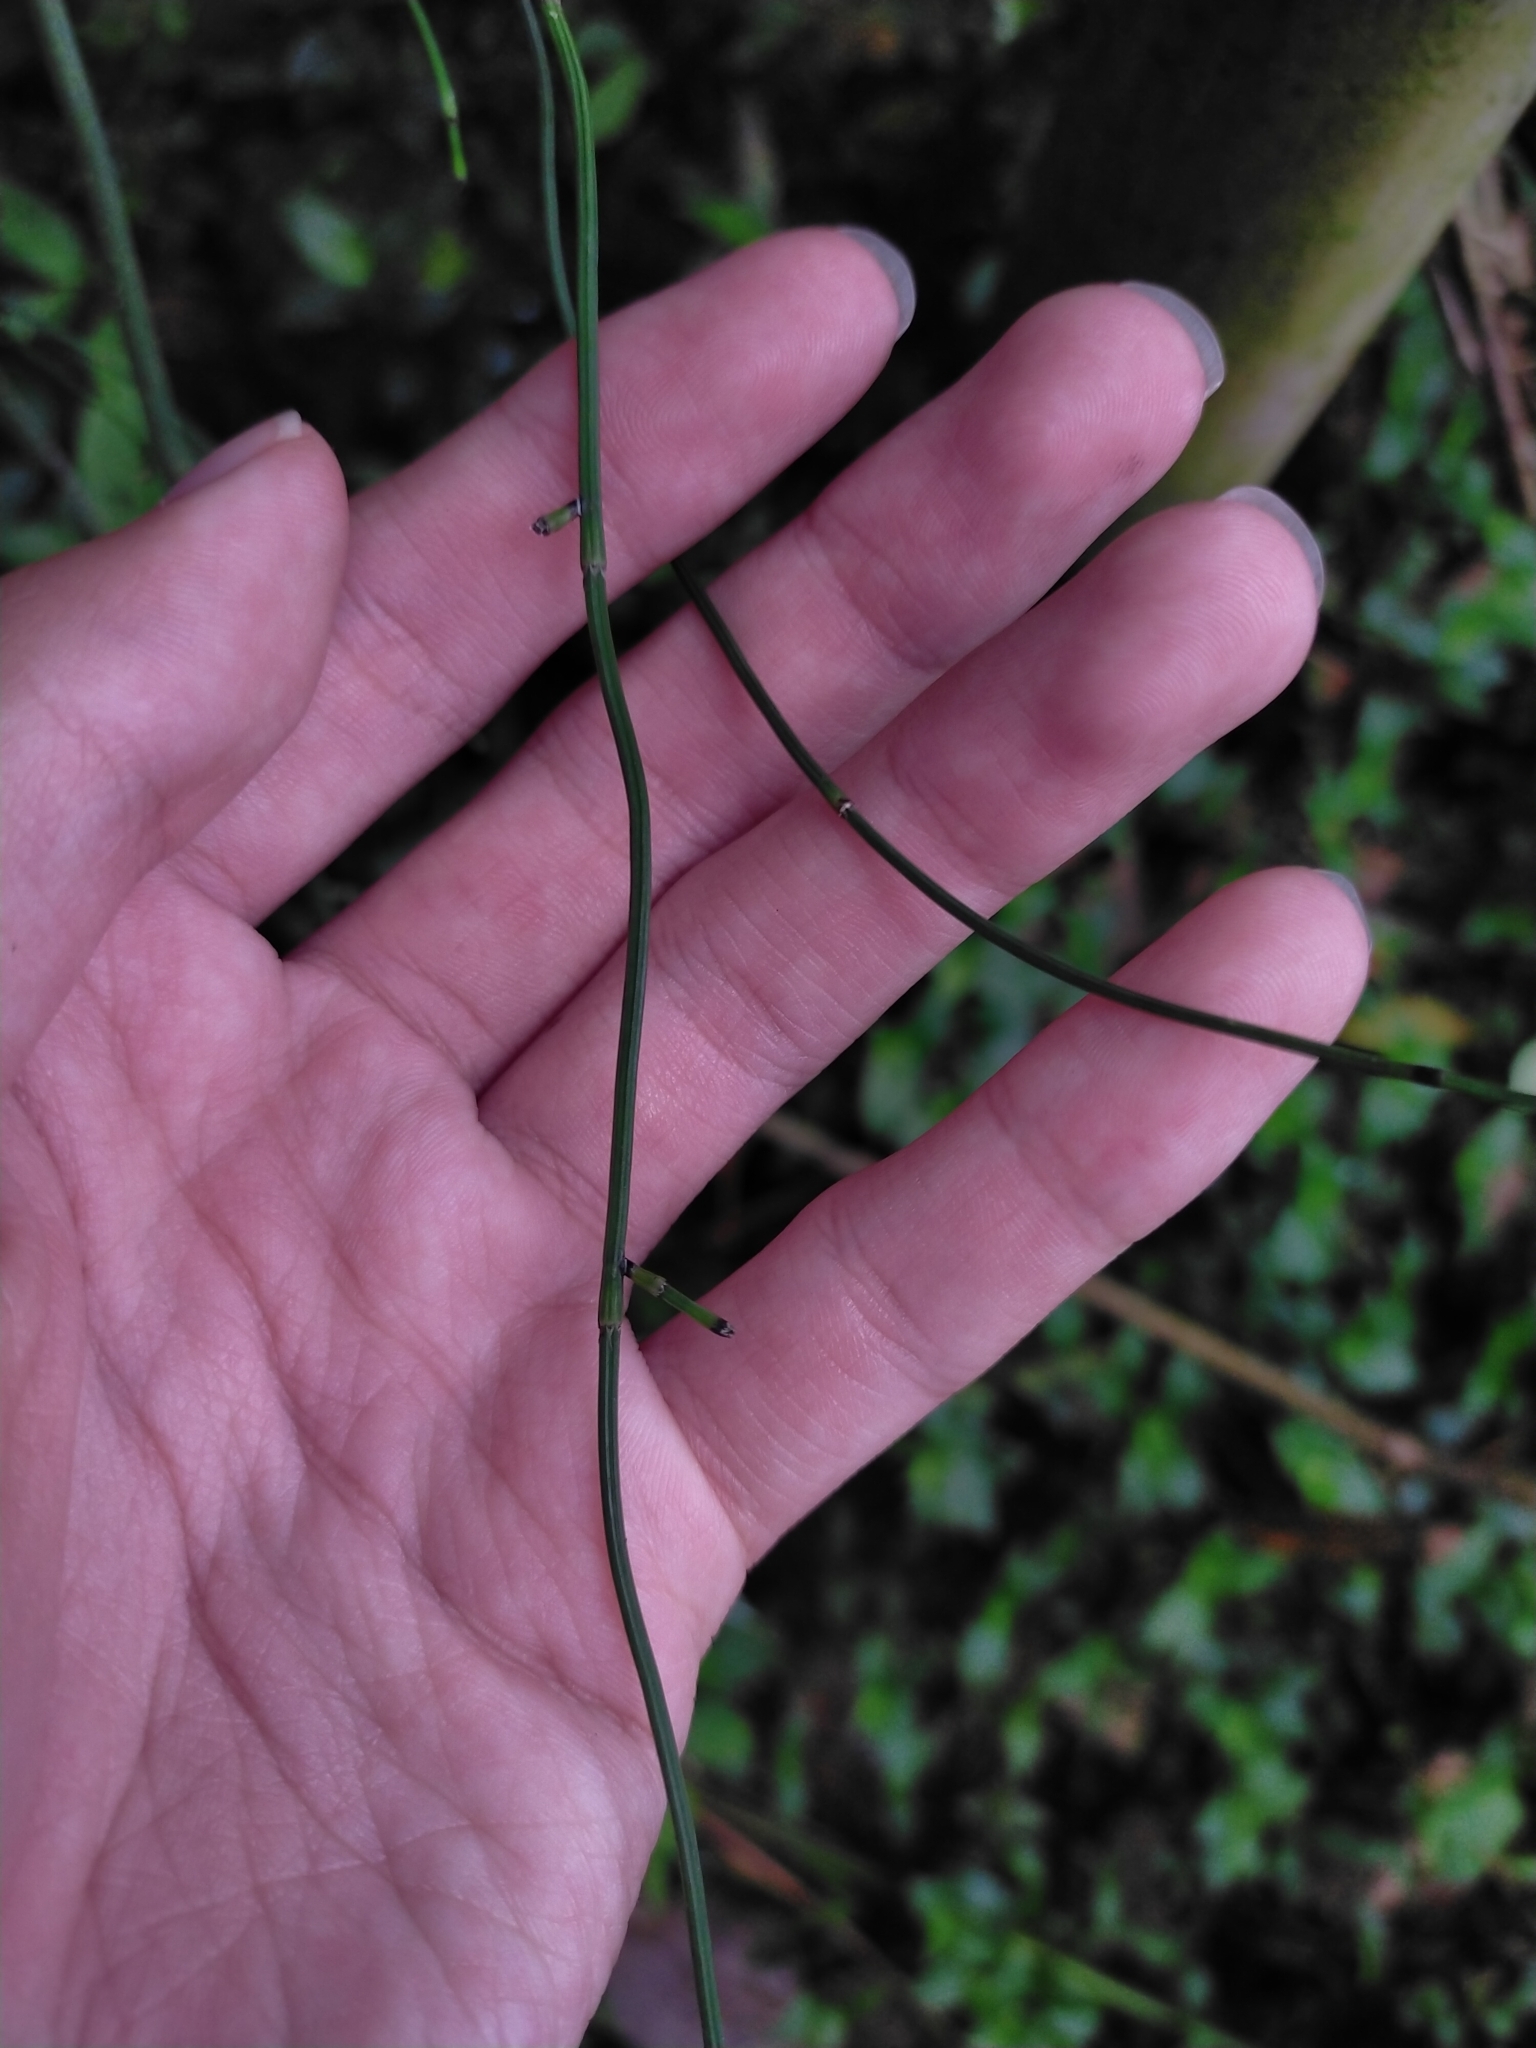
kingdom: Plantae
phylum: Tracheophyta
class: Polypodiopsida
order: Equisetales
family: Equisetaceae
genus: Equisetum
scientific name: Equisetum ramosissimum
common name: Branched horsetail
